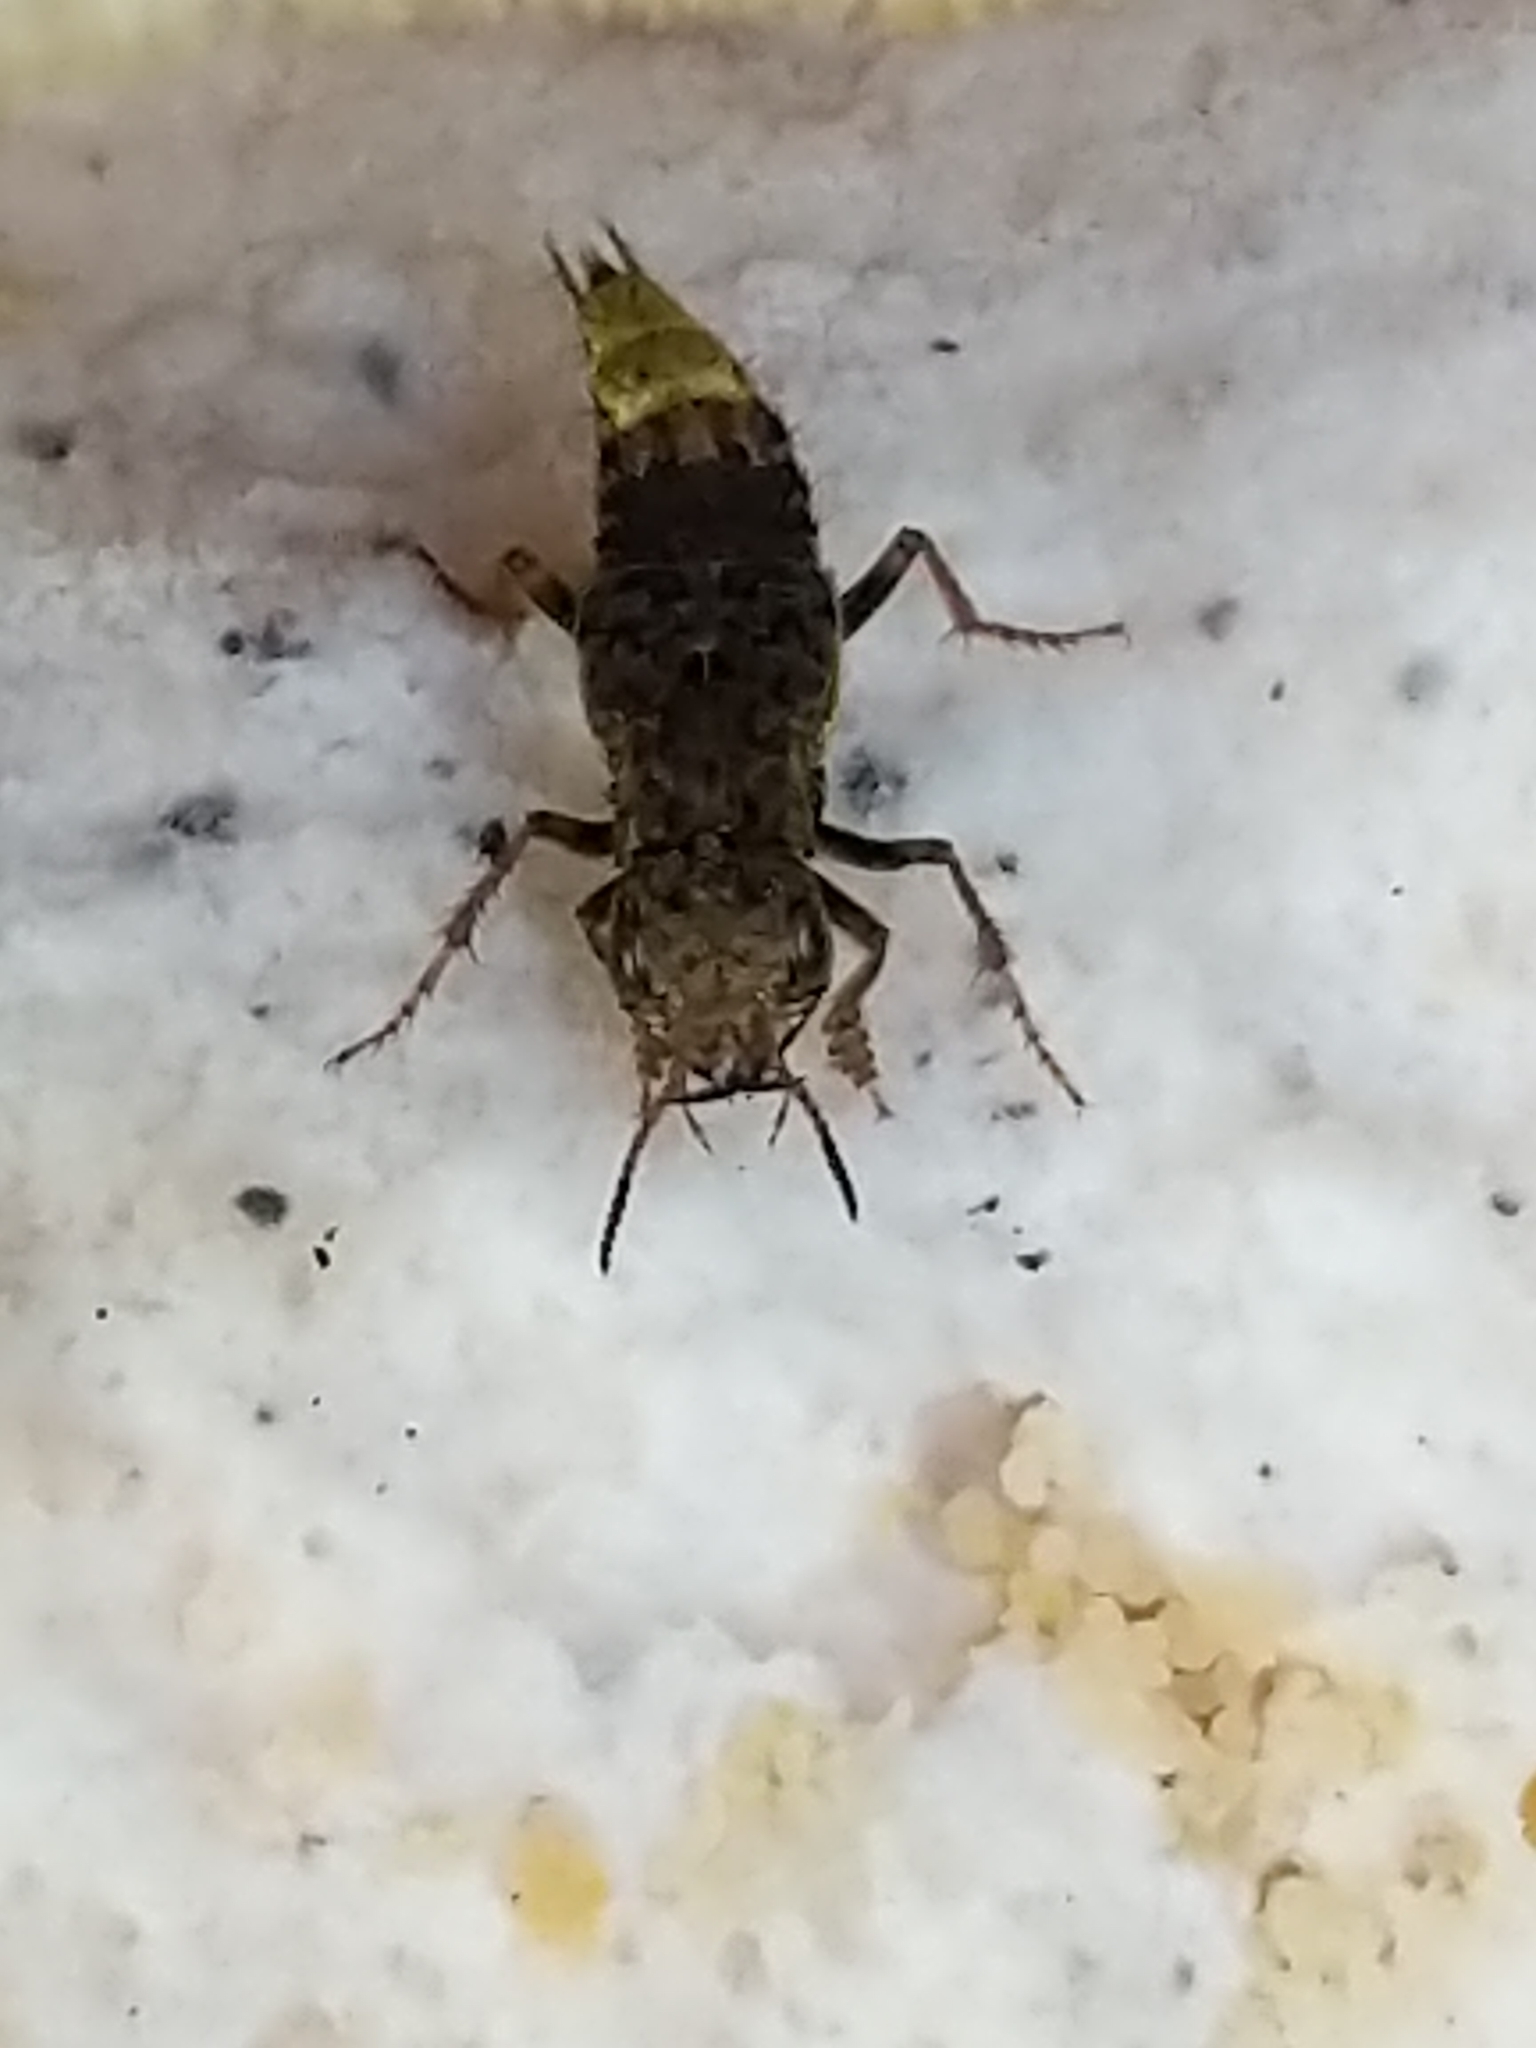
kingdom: Animalia
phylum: Arthropoda
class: Insecta
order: Coleoptera
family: Staphylinidae
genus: Ontholestes
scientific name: Ontholestes cingulatus
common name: Gold-and-brown rove beetle
